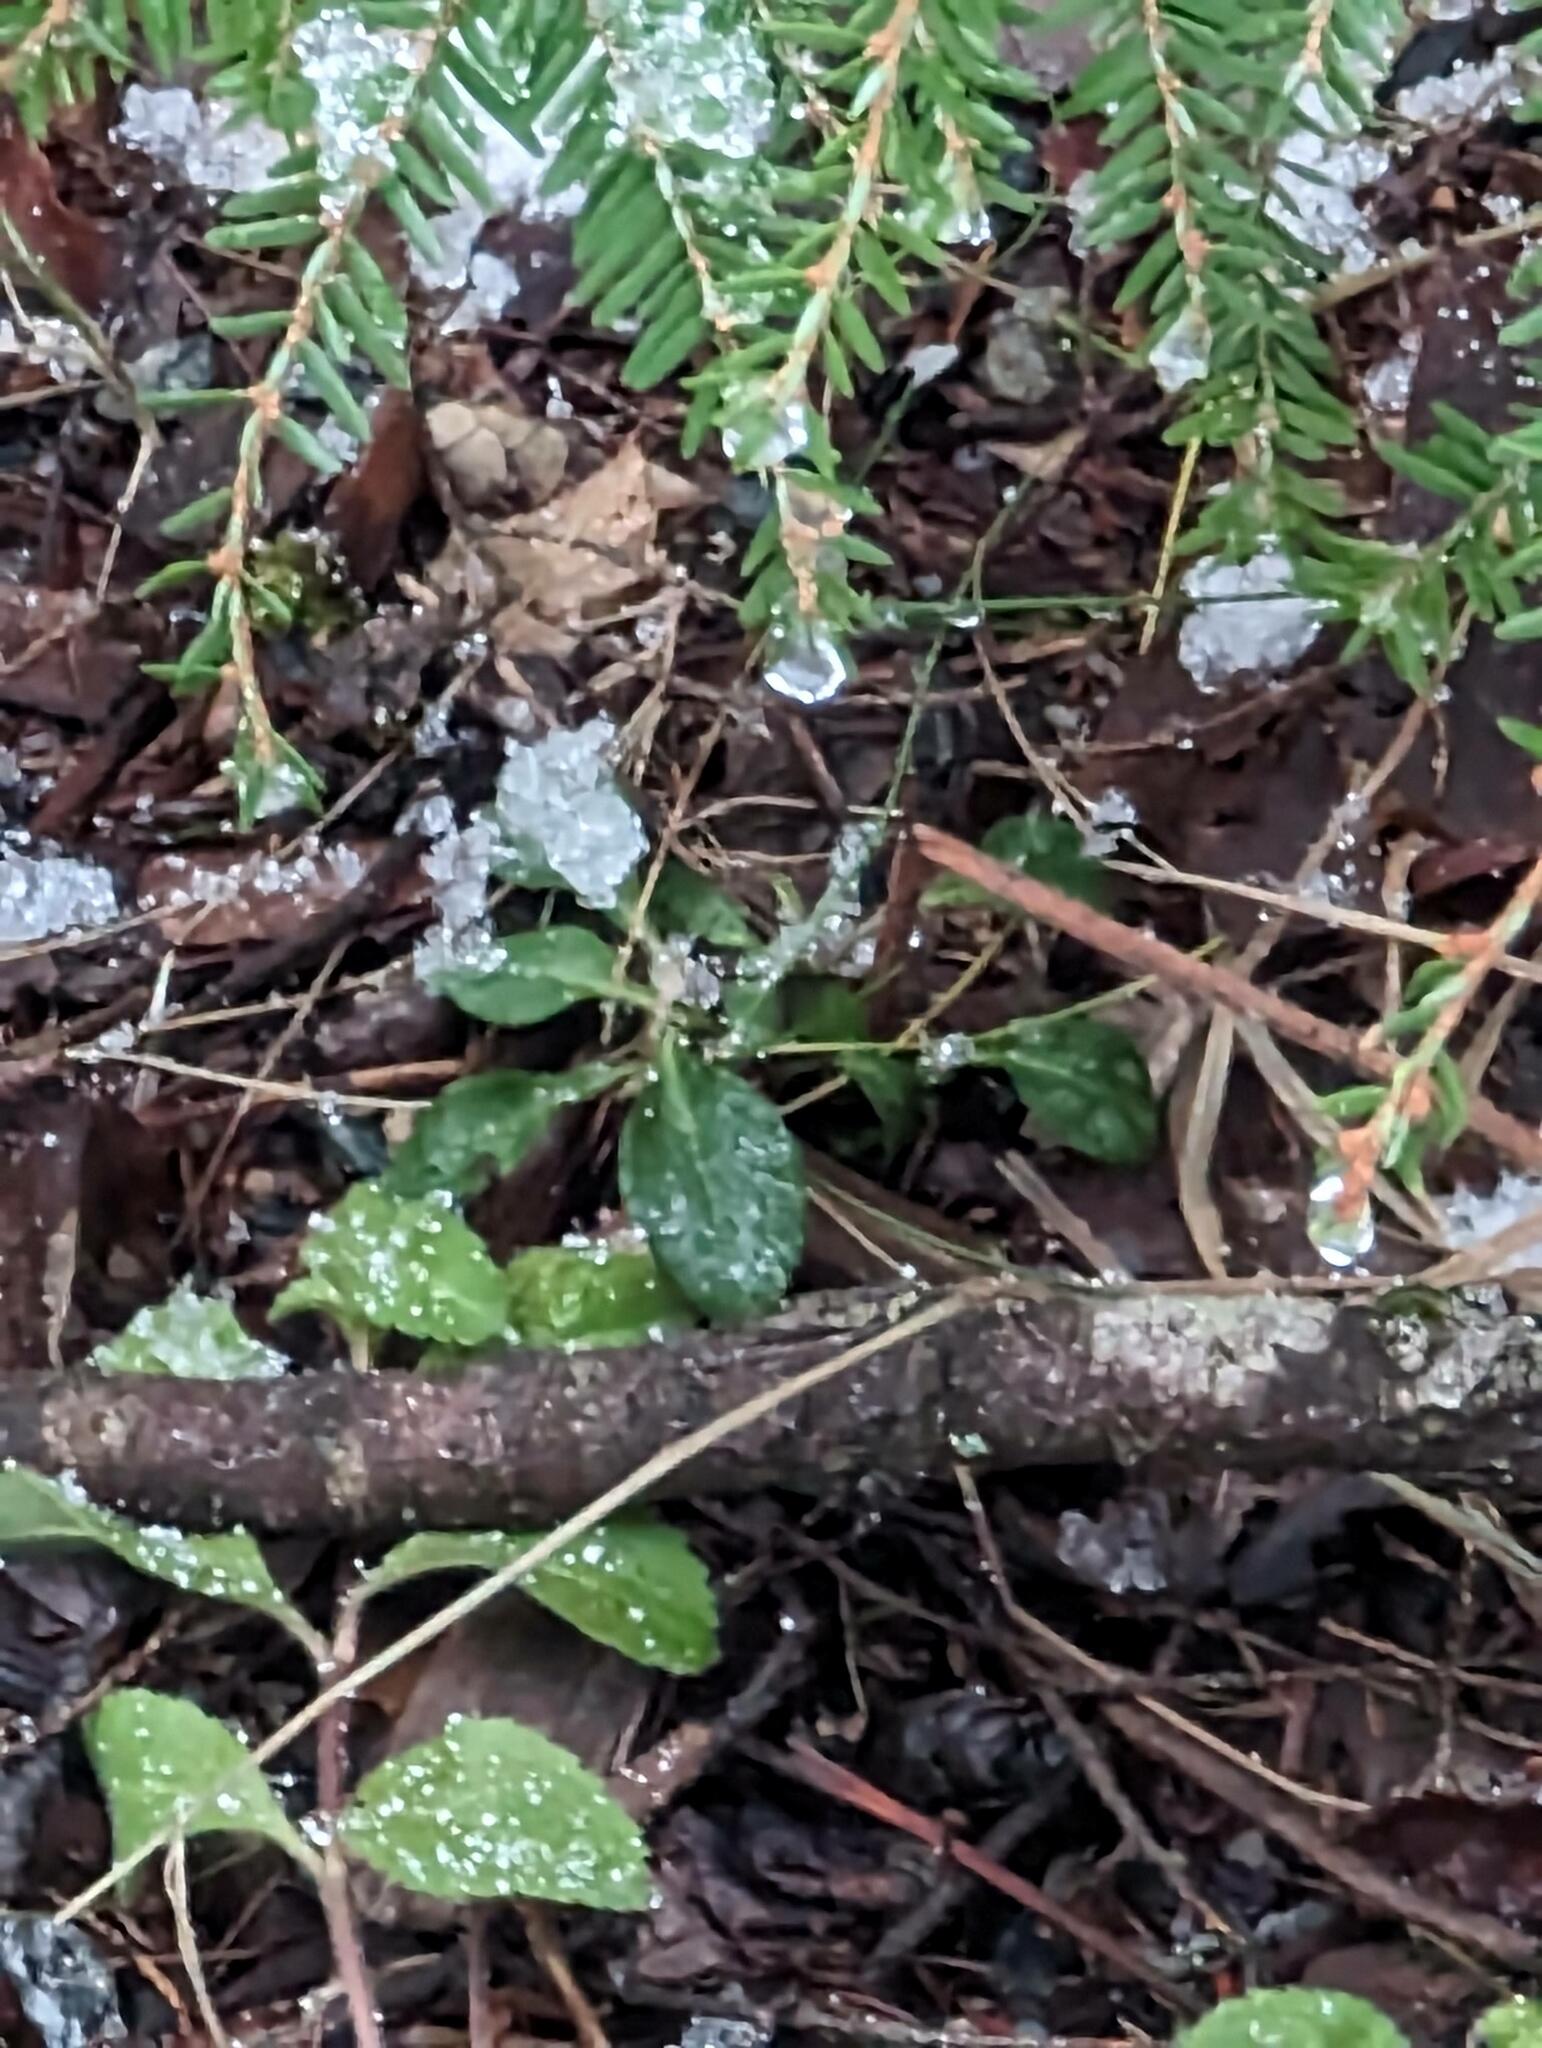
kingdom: Plantae
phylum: Tracheophyta
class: Magnoliopsida
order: Ericales
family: Ericaceae
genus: Gaultheria
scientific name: Gaultheria procumbens
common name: Checkerberry
